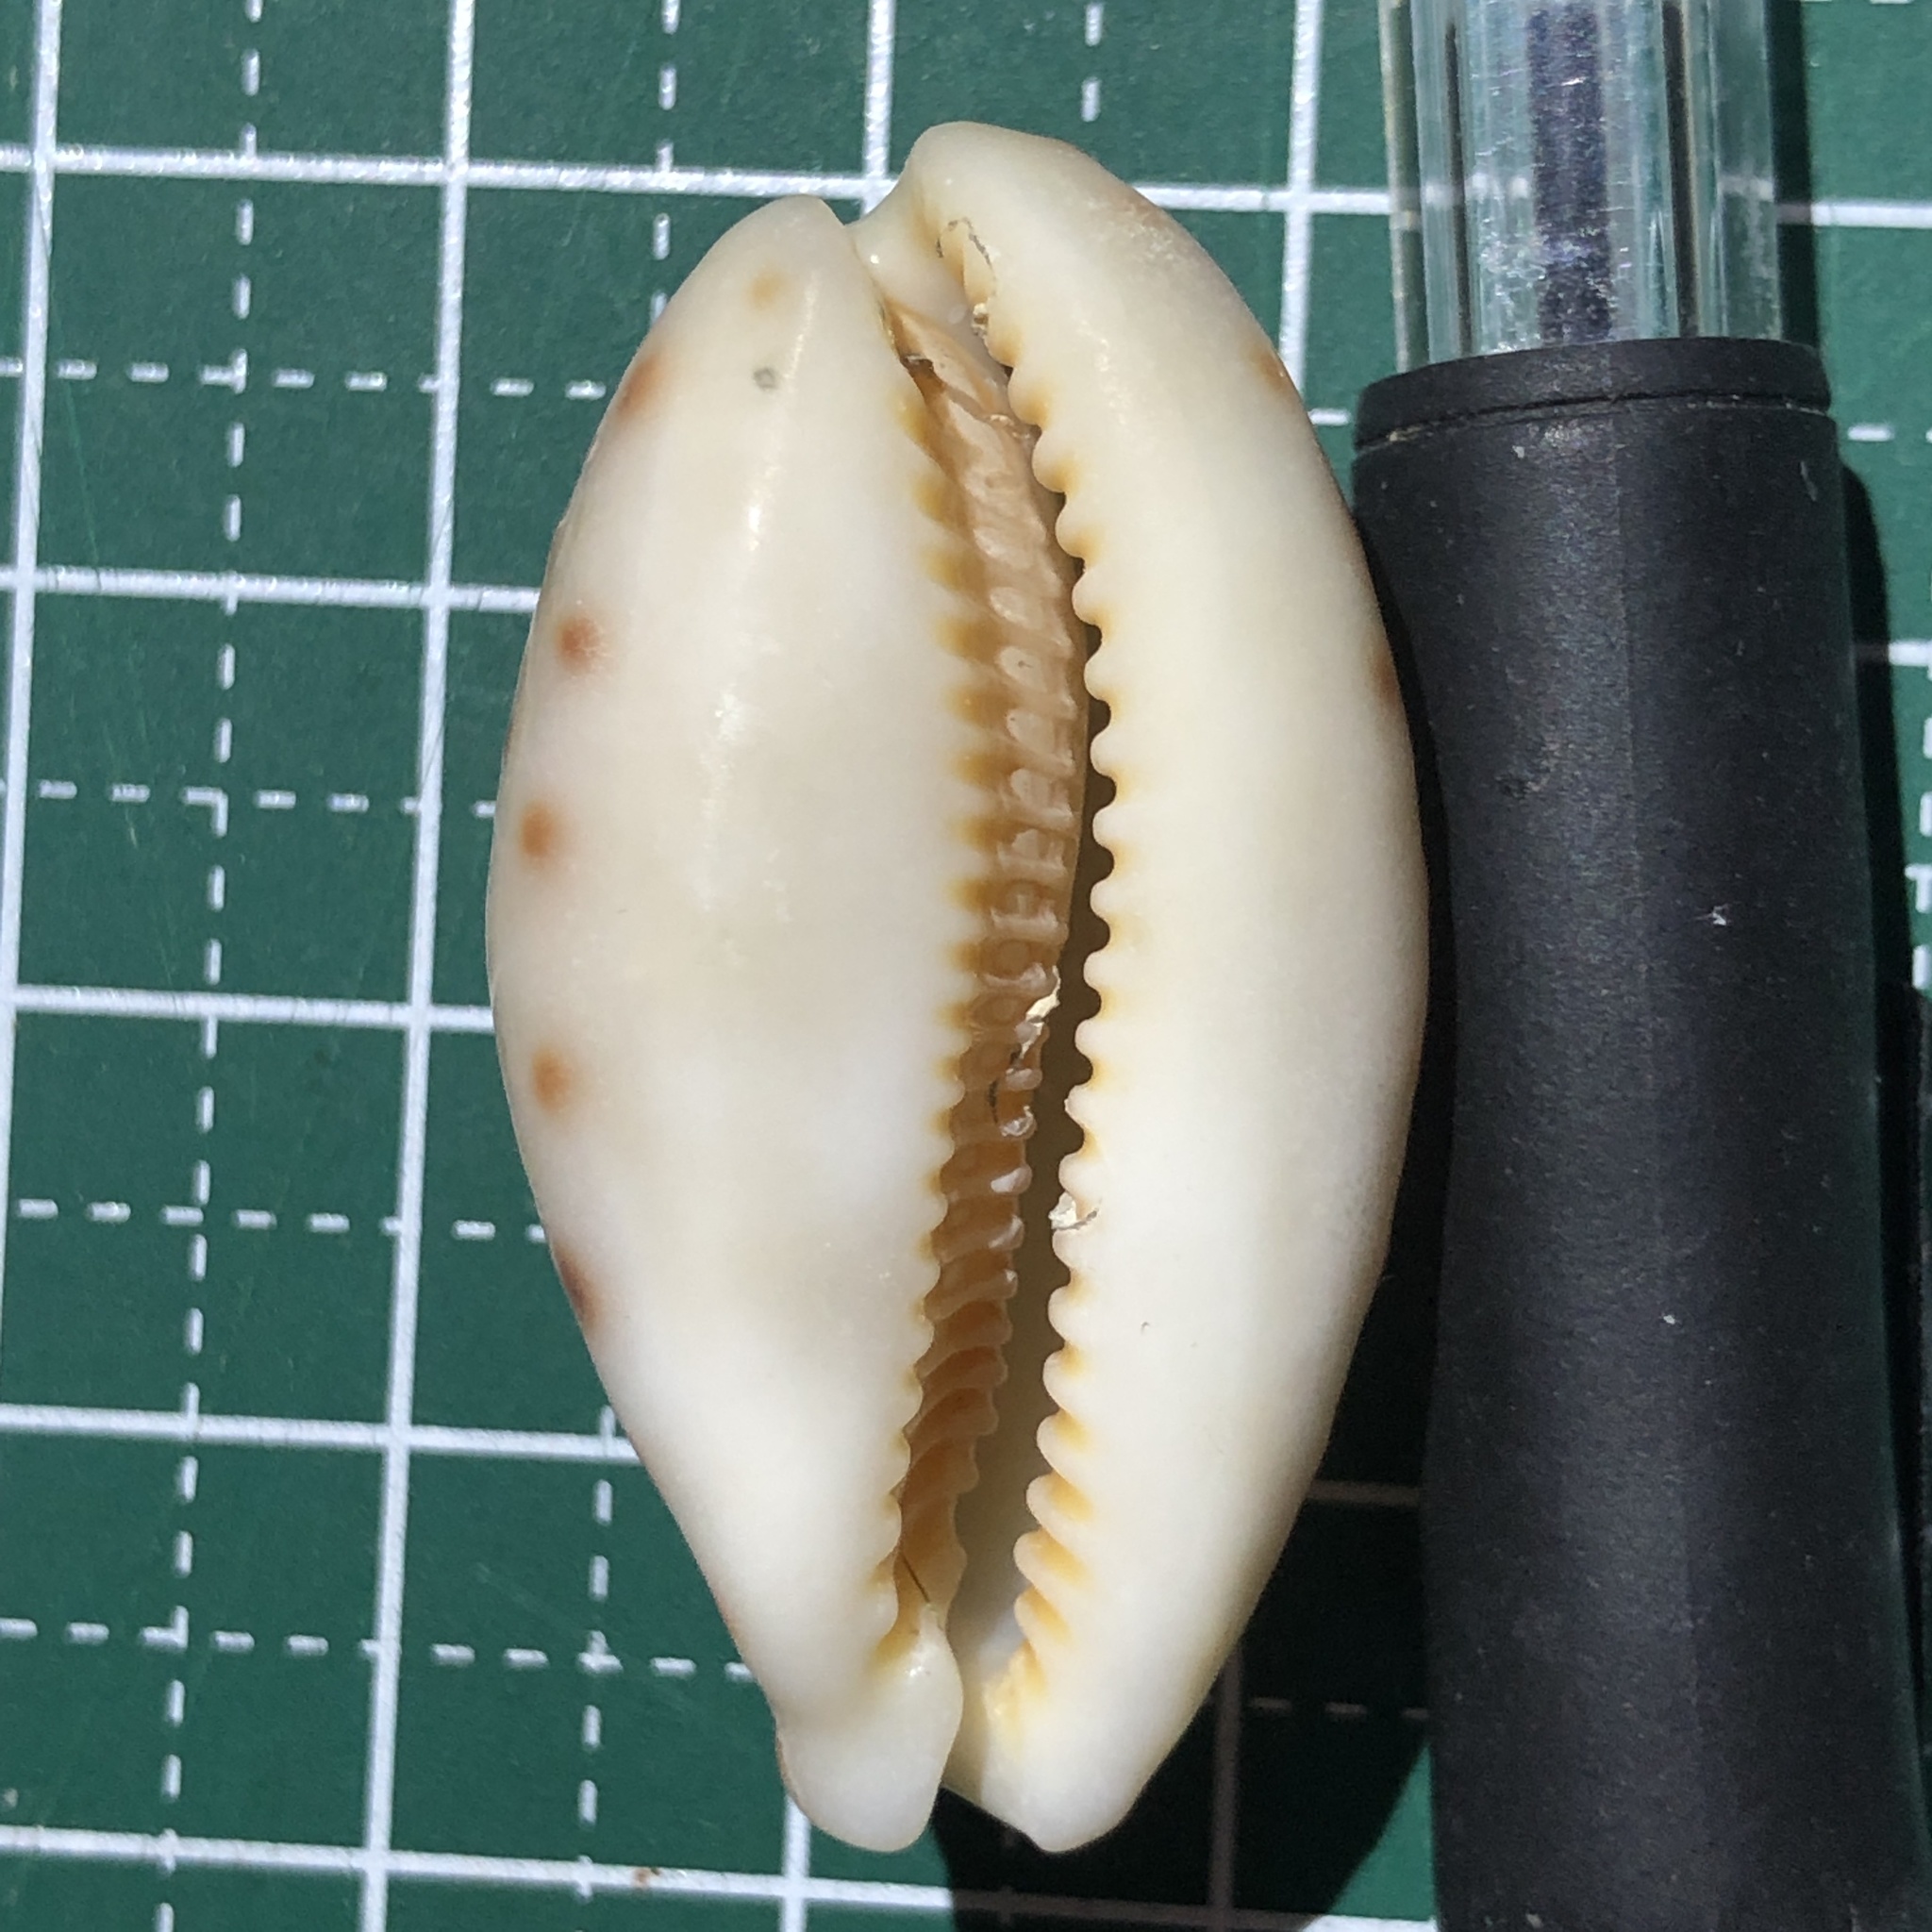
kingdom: Animalia
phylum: Mollusca
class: Gastropoda
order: Littorinimorpha
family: Cypraeidae
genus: Lyncina
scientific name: Lyncina lynx
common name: Bobcat cowrie
